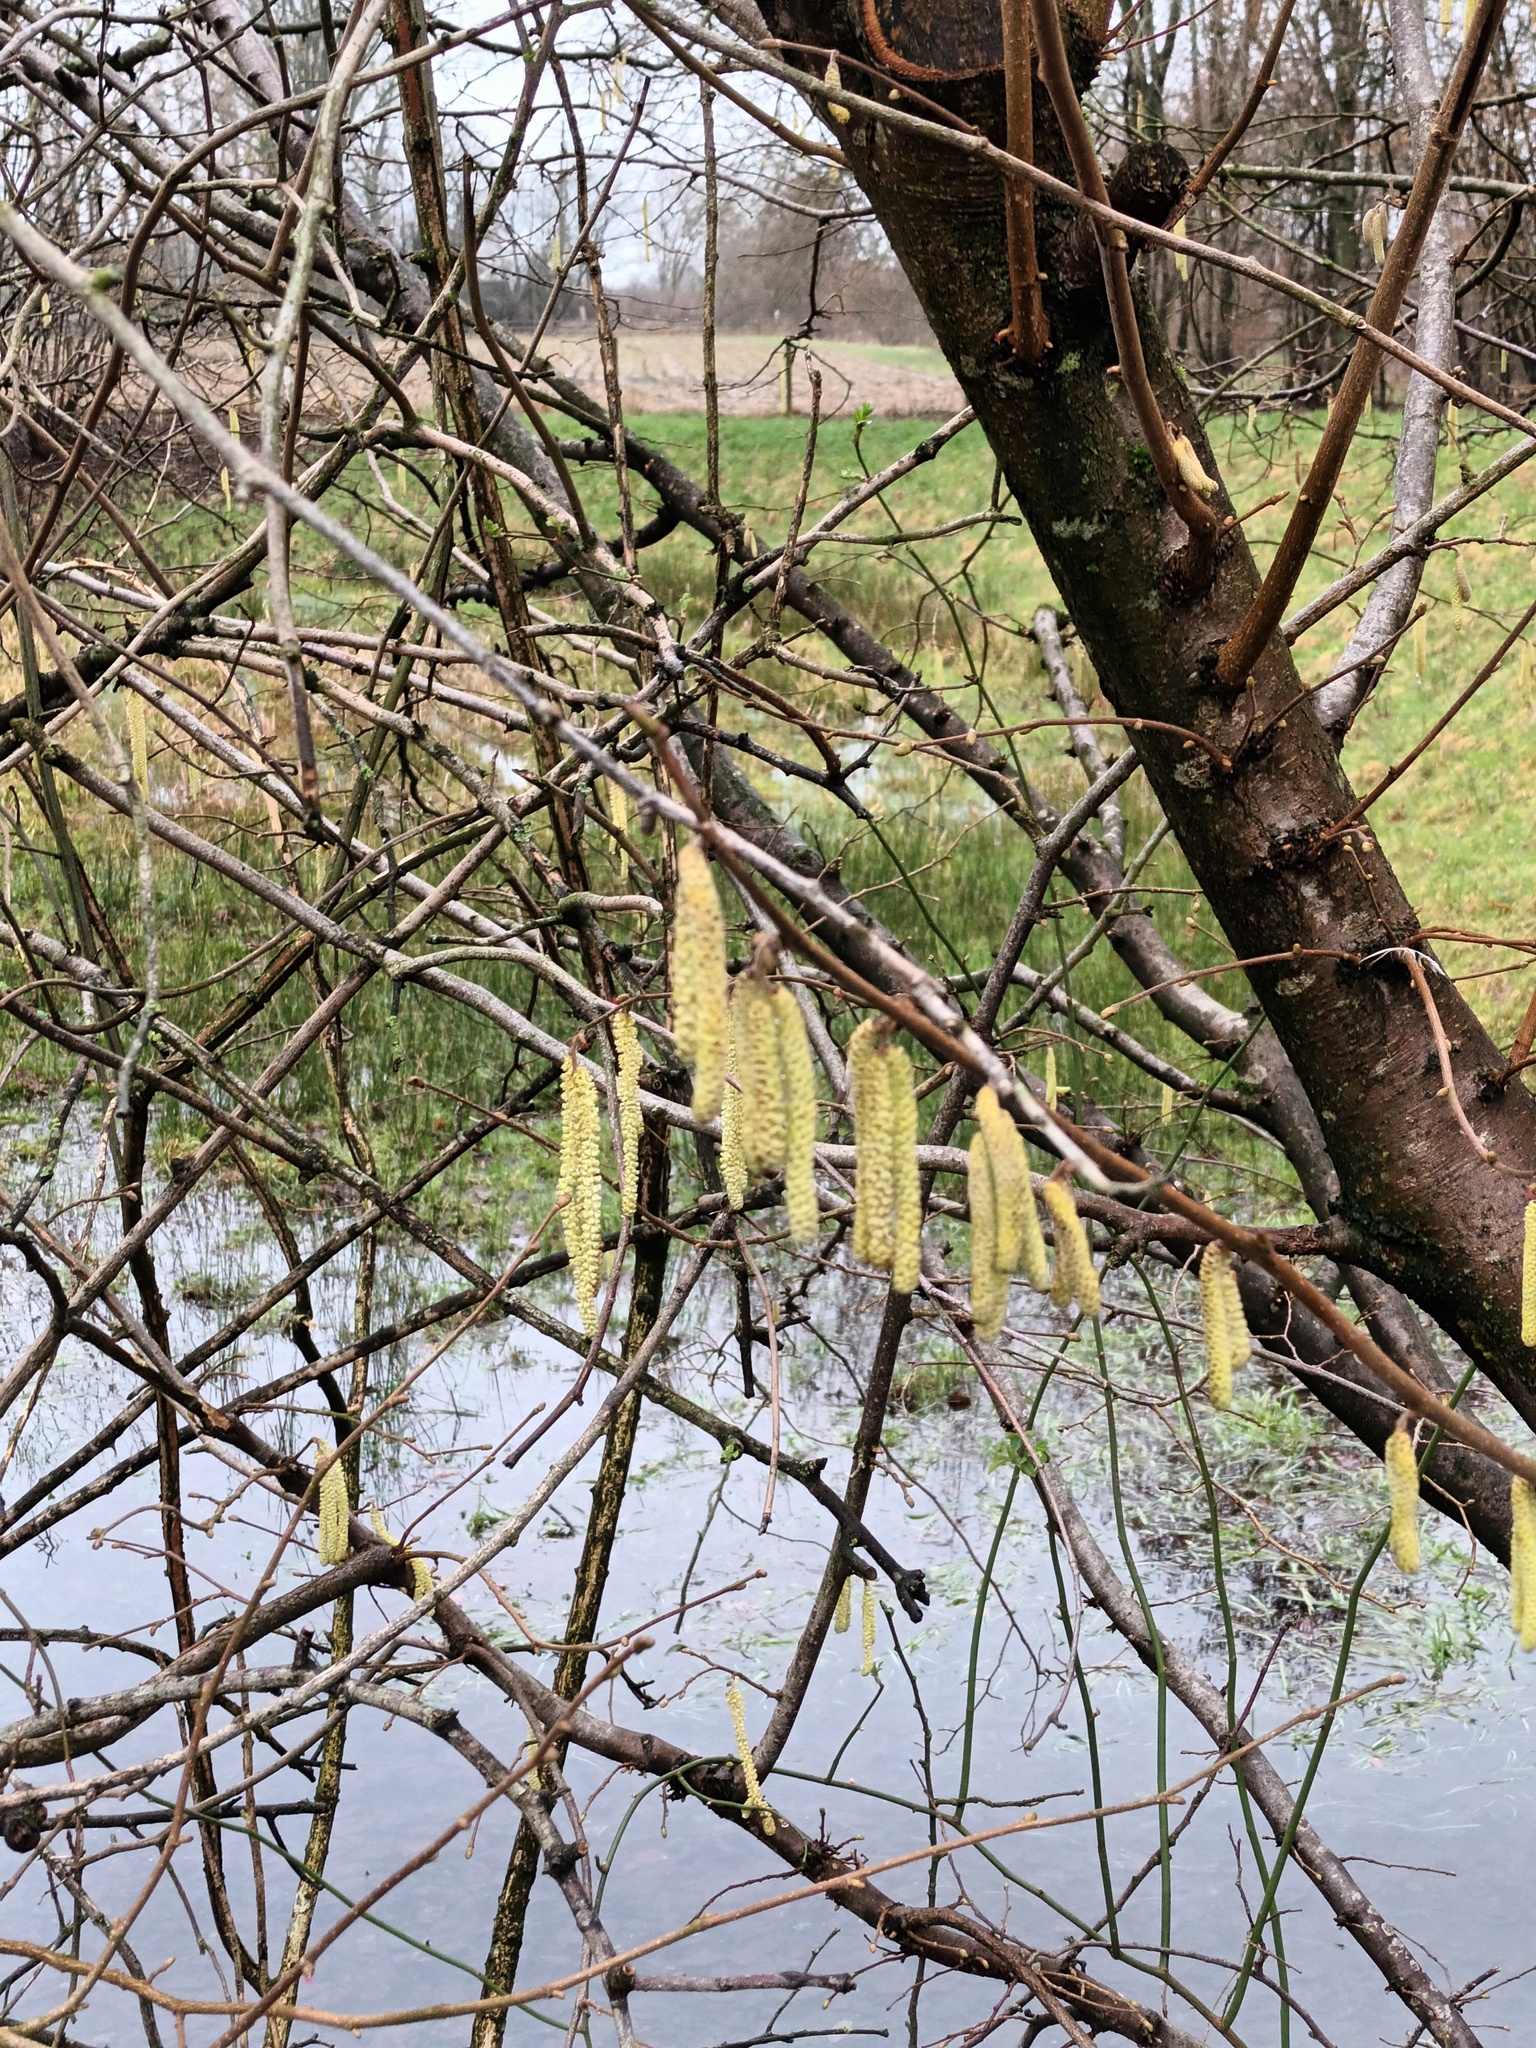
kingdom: Plantae
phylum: Tracheophyta
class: Magnoliopsida
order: Fagales
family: Betulaceae
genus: Corylus
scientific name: Corylus avellana
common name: European hazel
